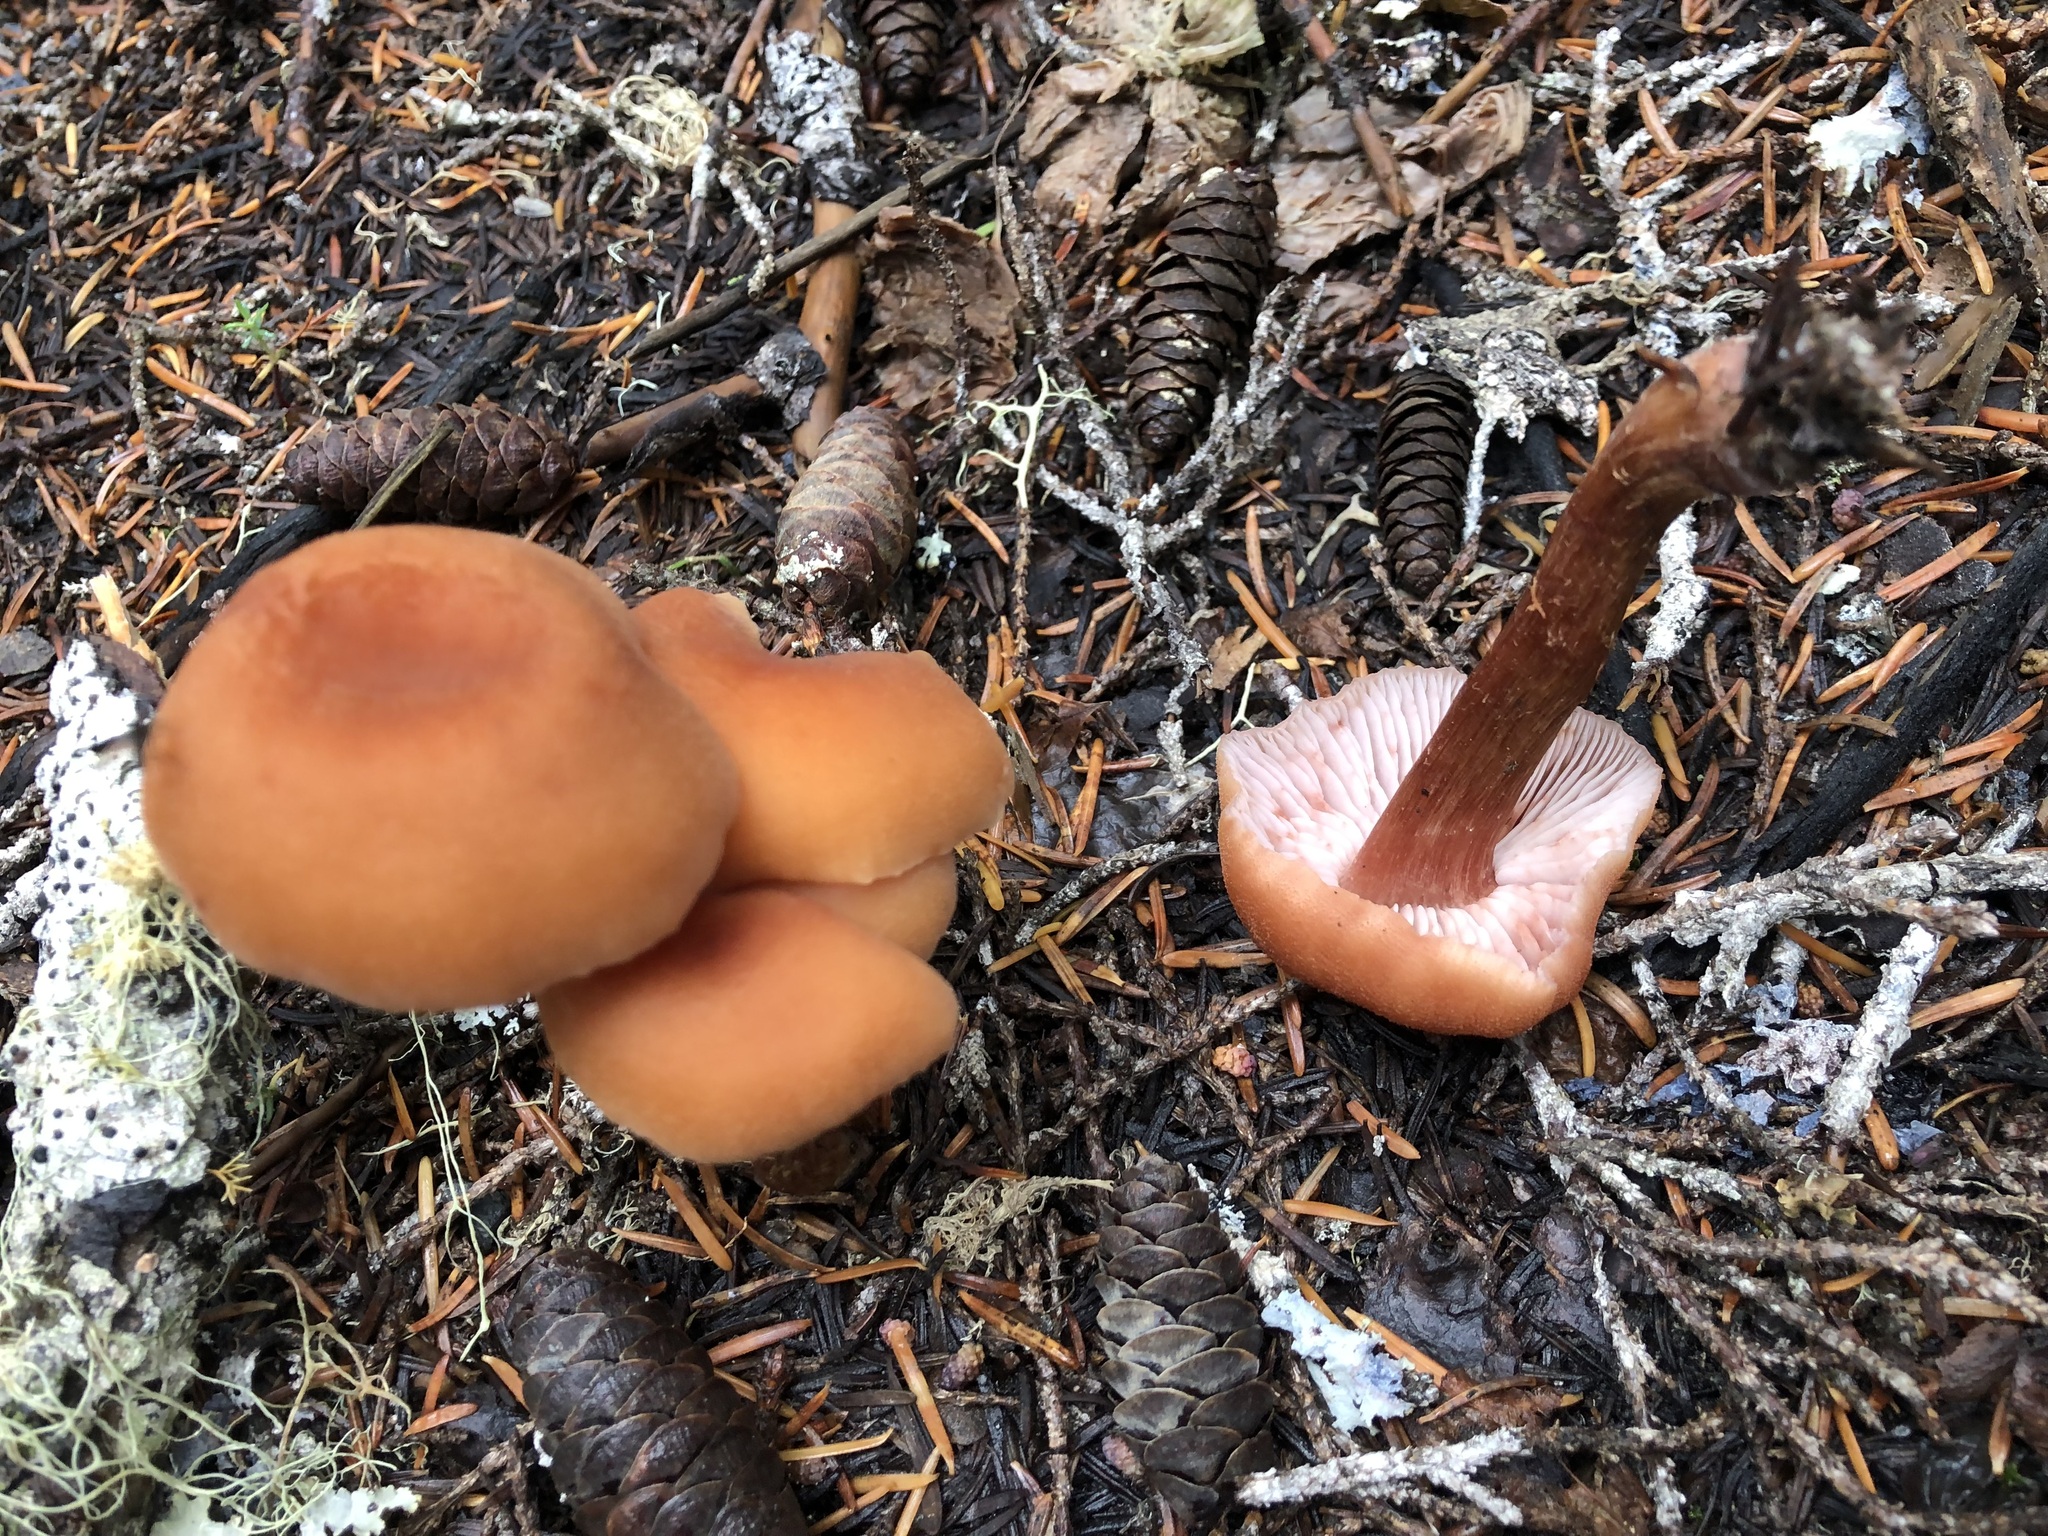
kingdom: Fungi
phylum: Basidiomycota
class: Agaricomycetes
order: Agaricales
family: Hydnangiaceae
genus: Laccaria
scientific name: Laccaria bicolor
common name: Bicoloured deceiver
